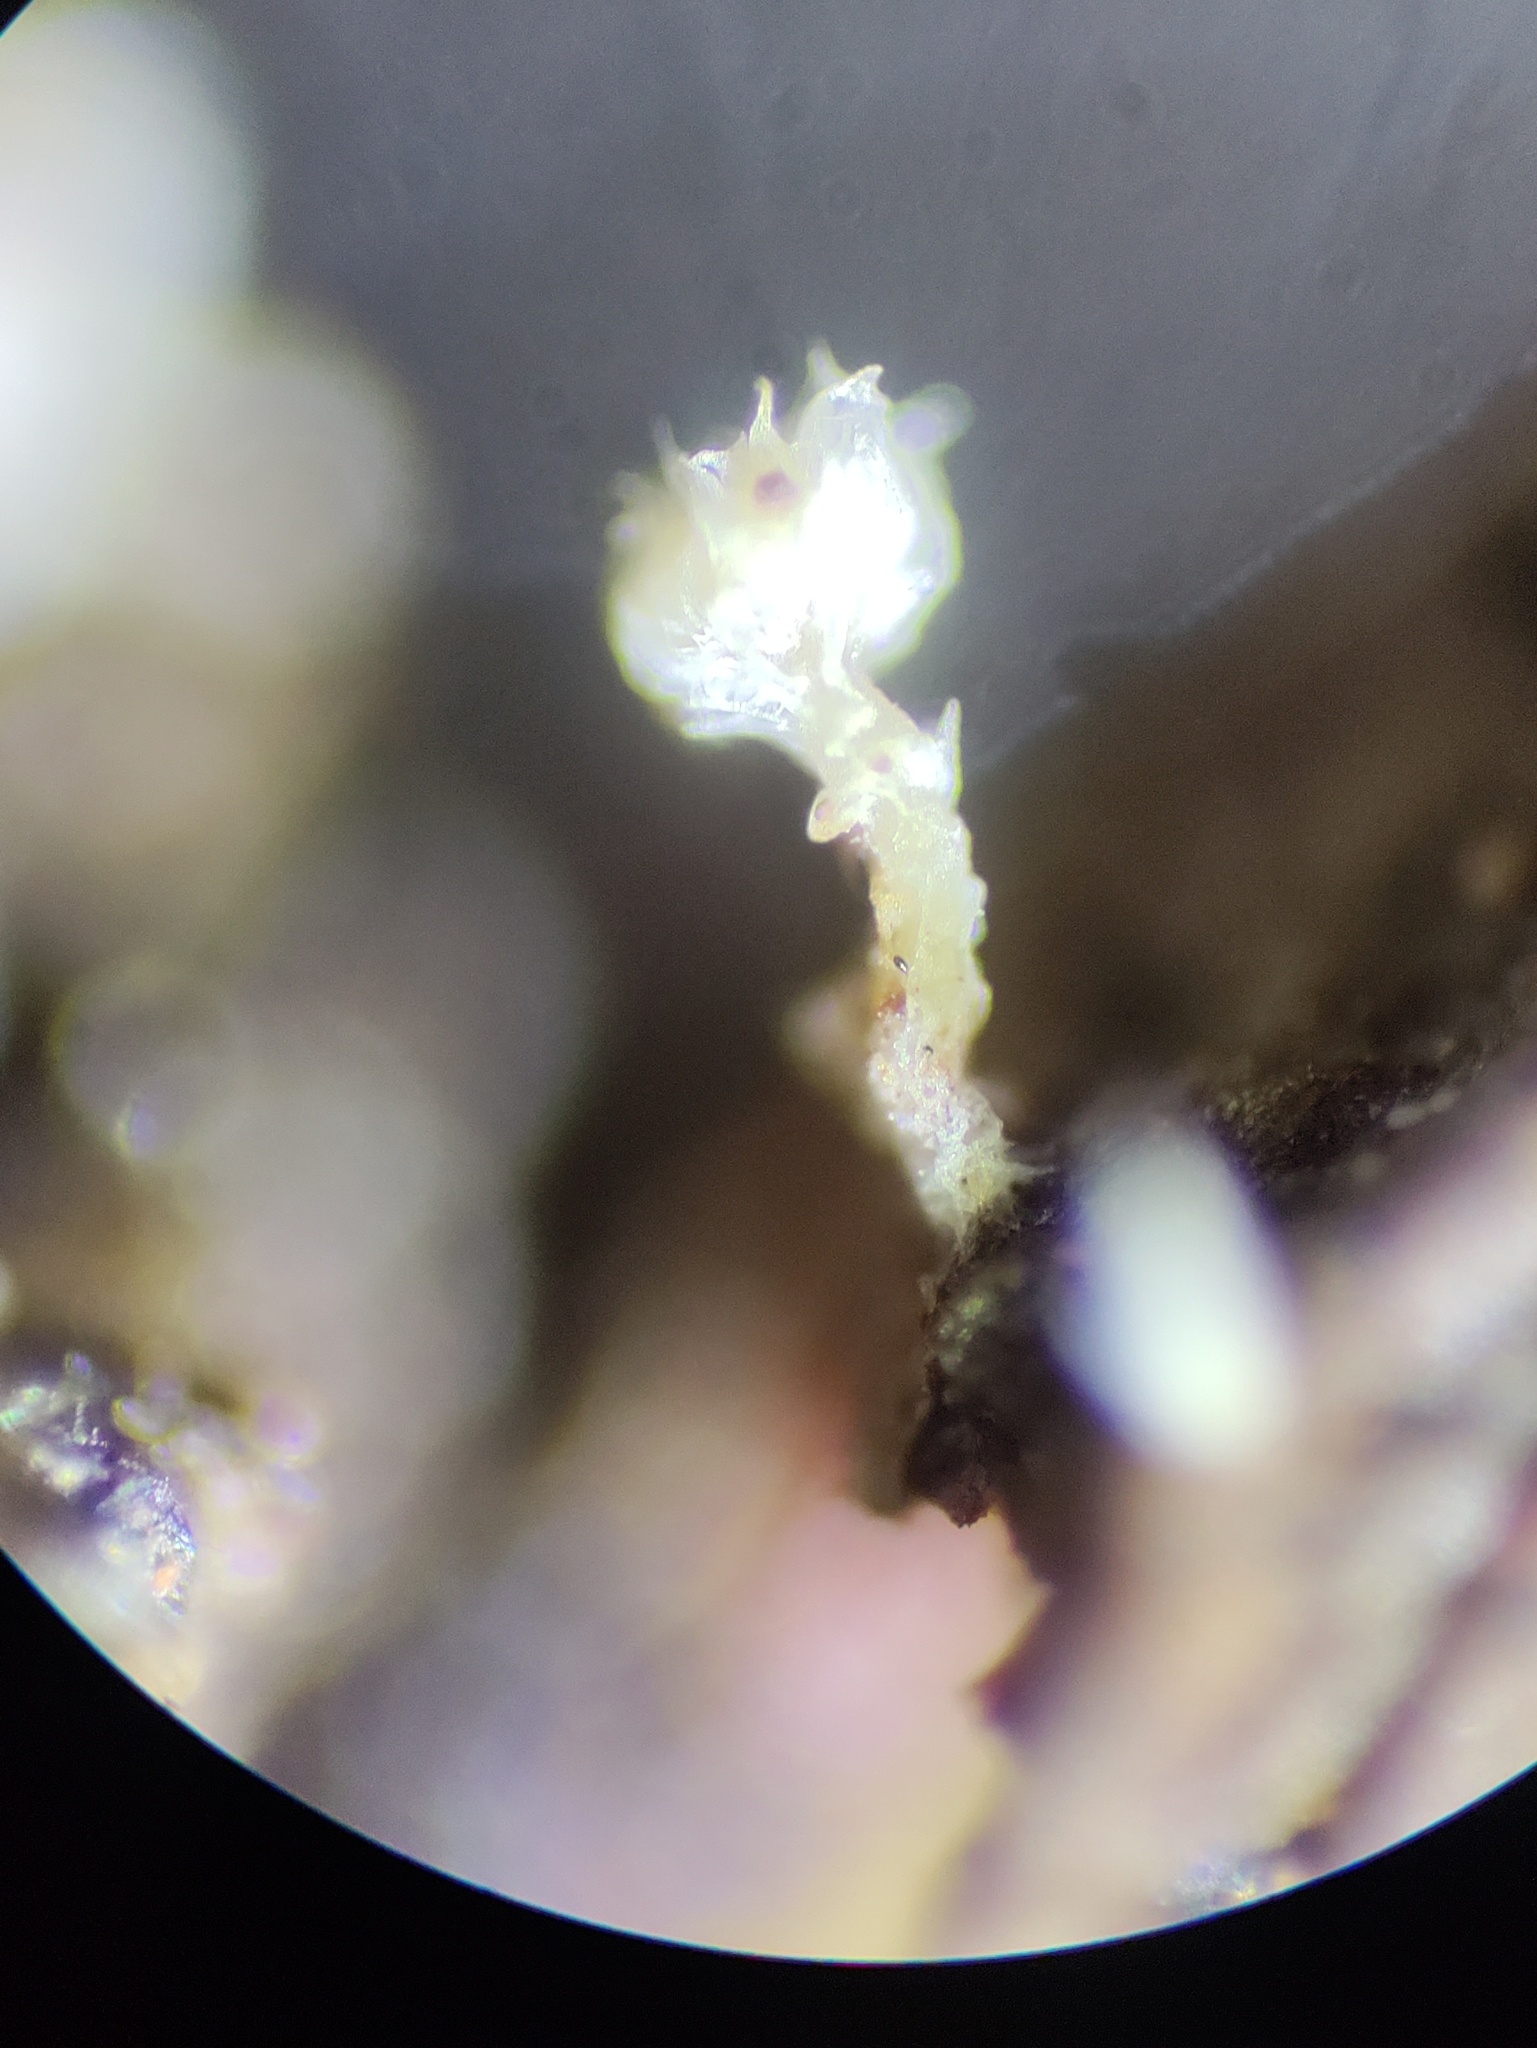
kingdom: Fungi
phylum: Ascomycota
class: Leotiomycetes
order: Helotiales
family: Lachnaceae
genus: Lachnum
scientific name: Lachnum virgineum
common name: Snowy disco
